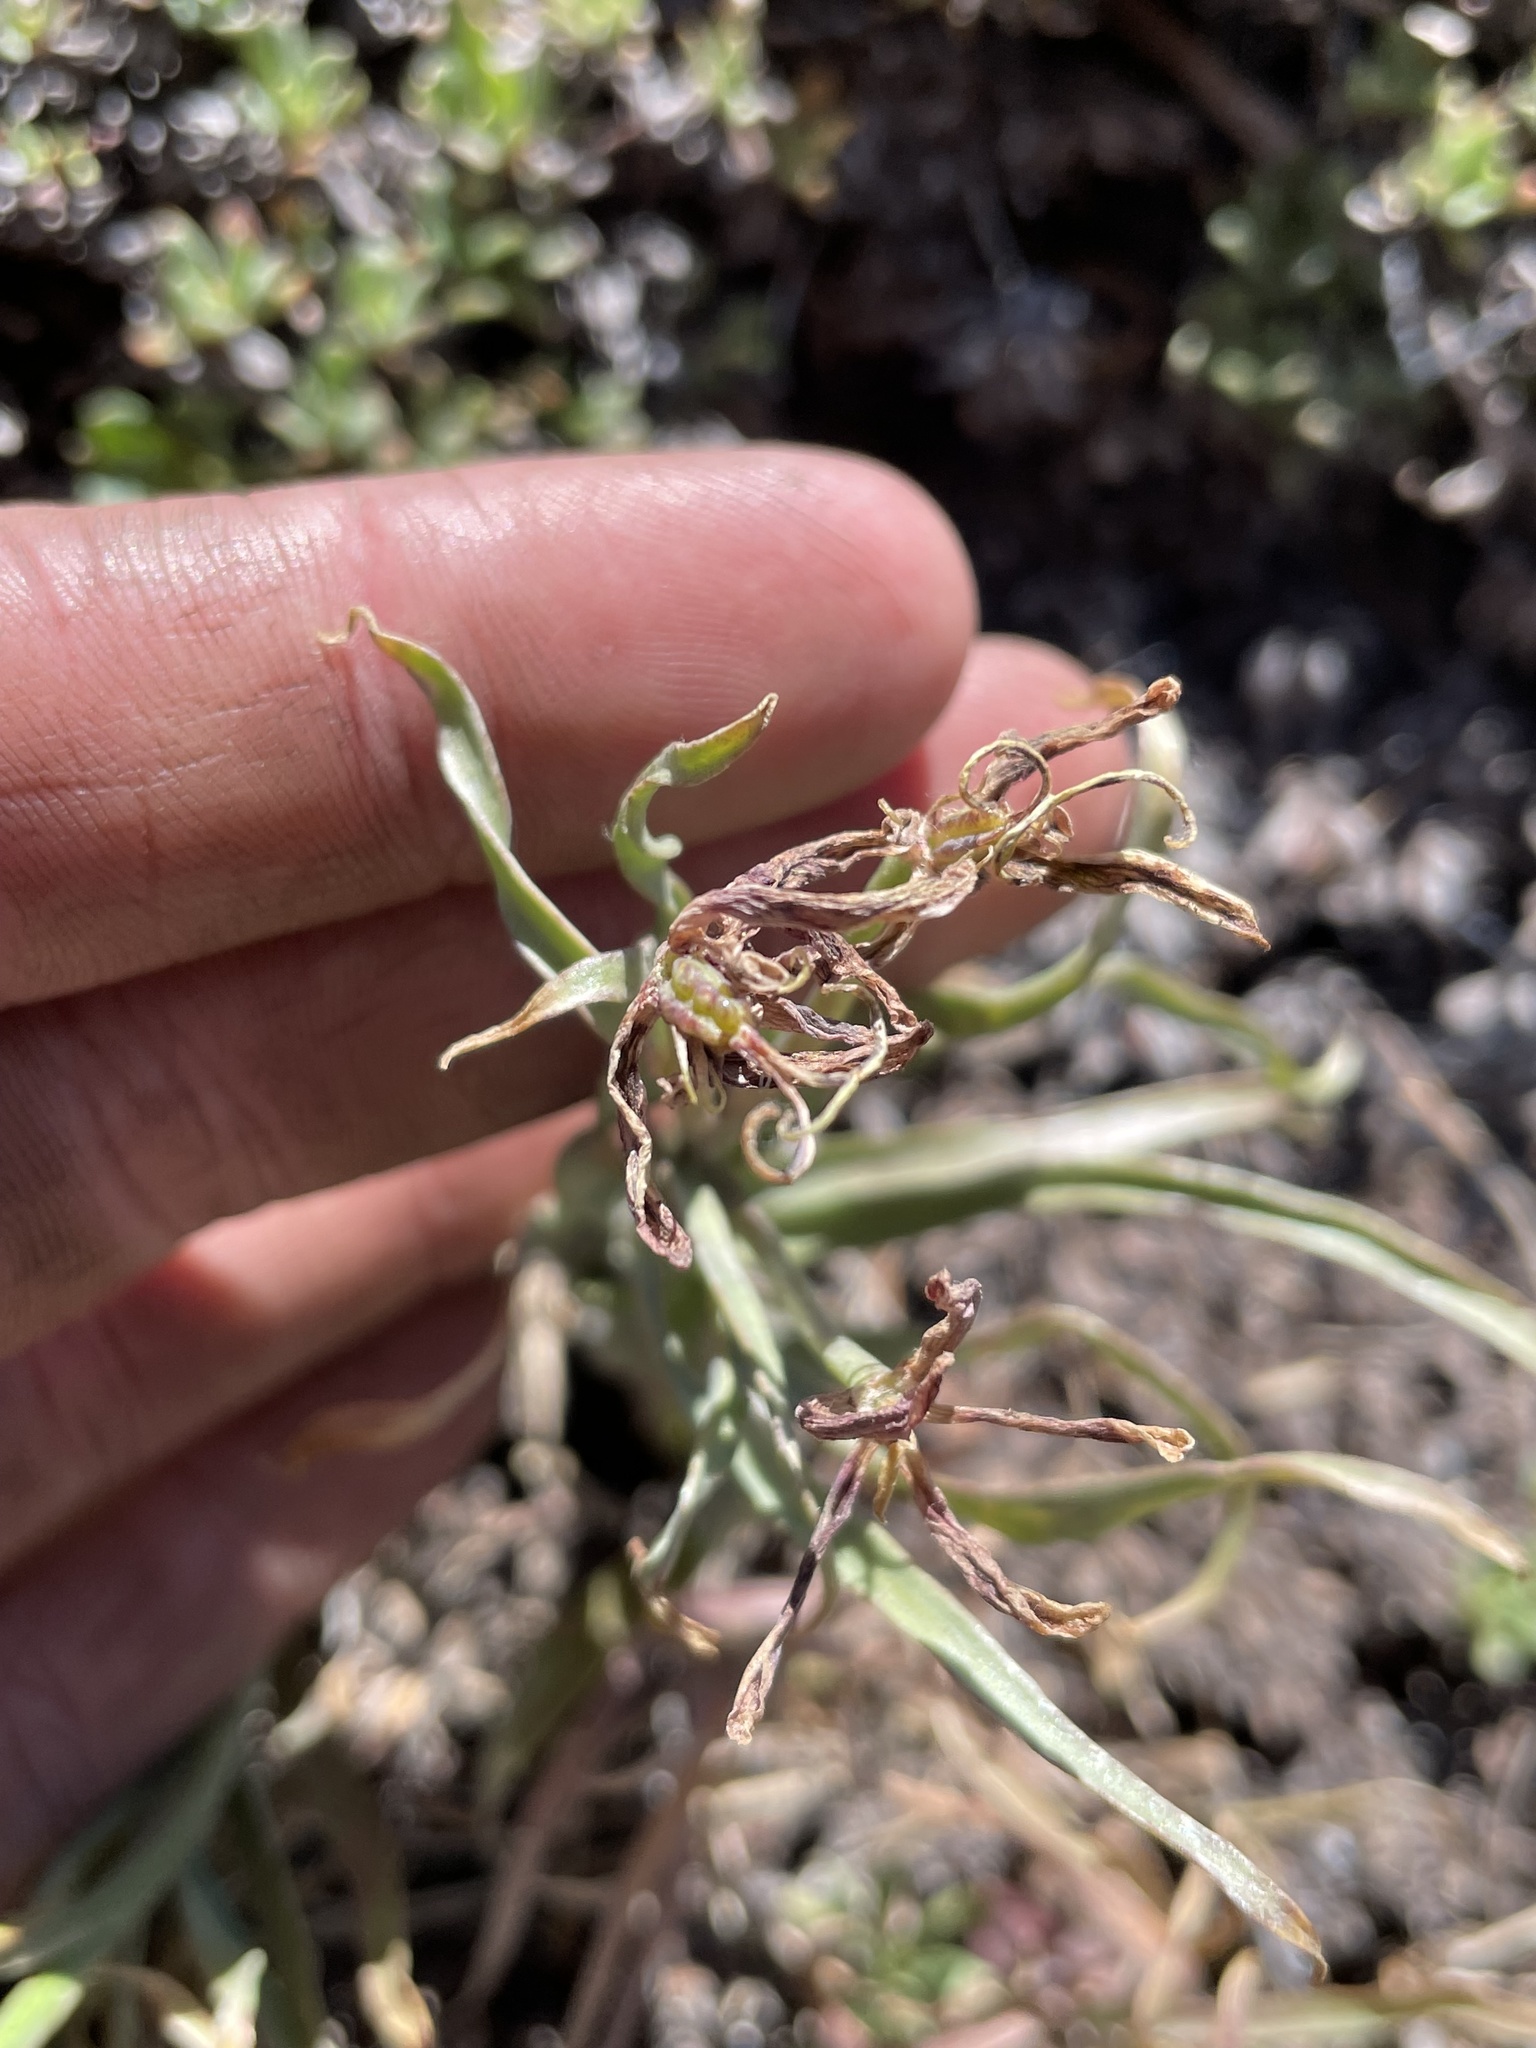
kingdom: Plantae
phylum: Tracheophyta
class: Liliopsida
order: Liliales
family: Liliaceae
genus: Fritillaria
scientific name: Fritillaria pinetorum
